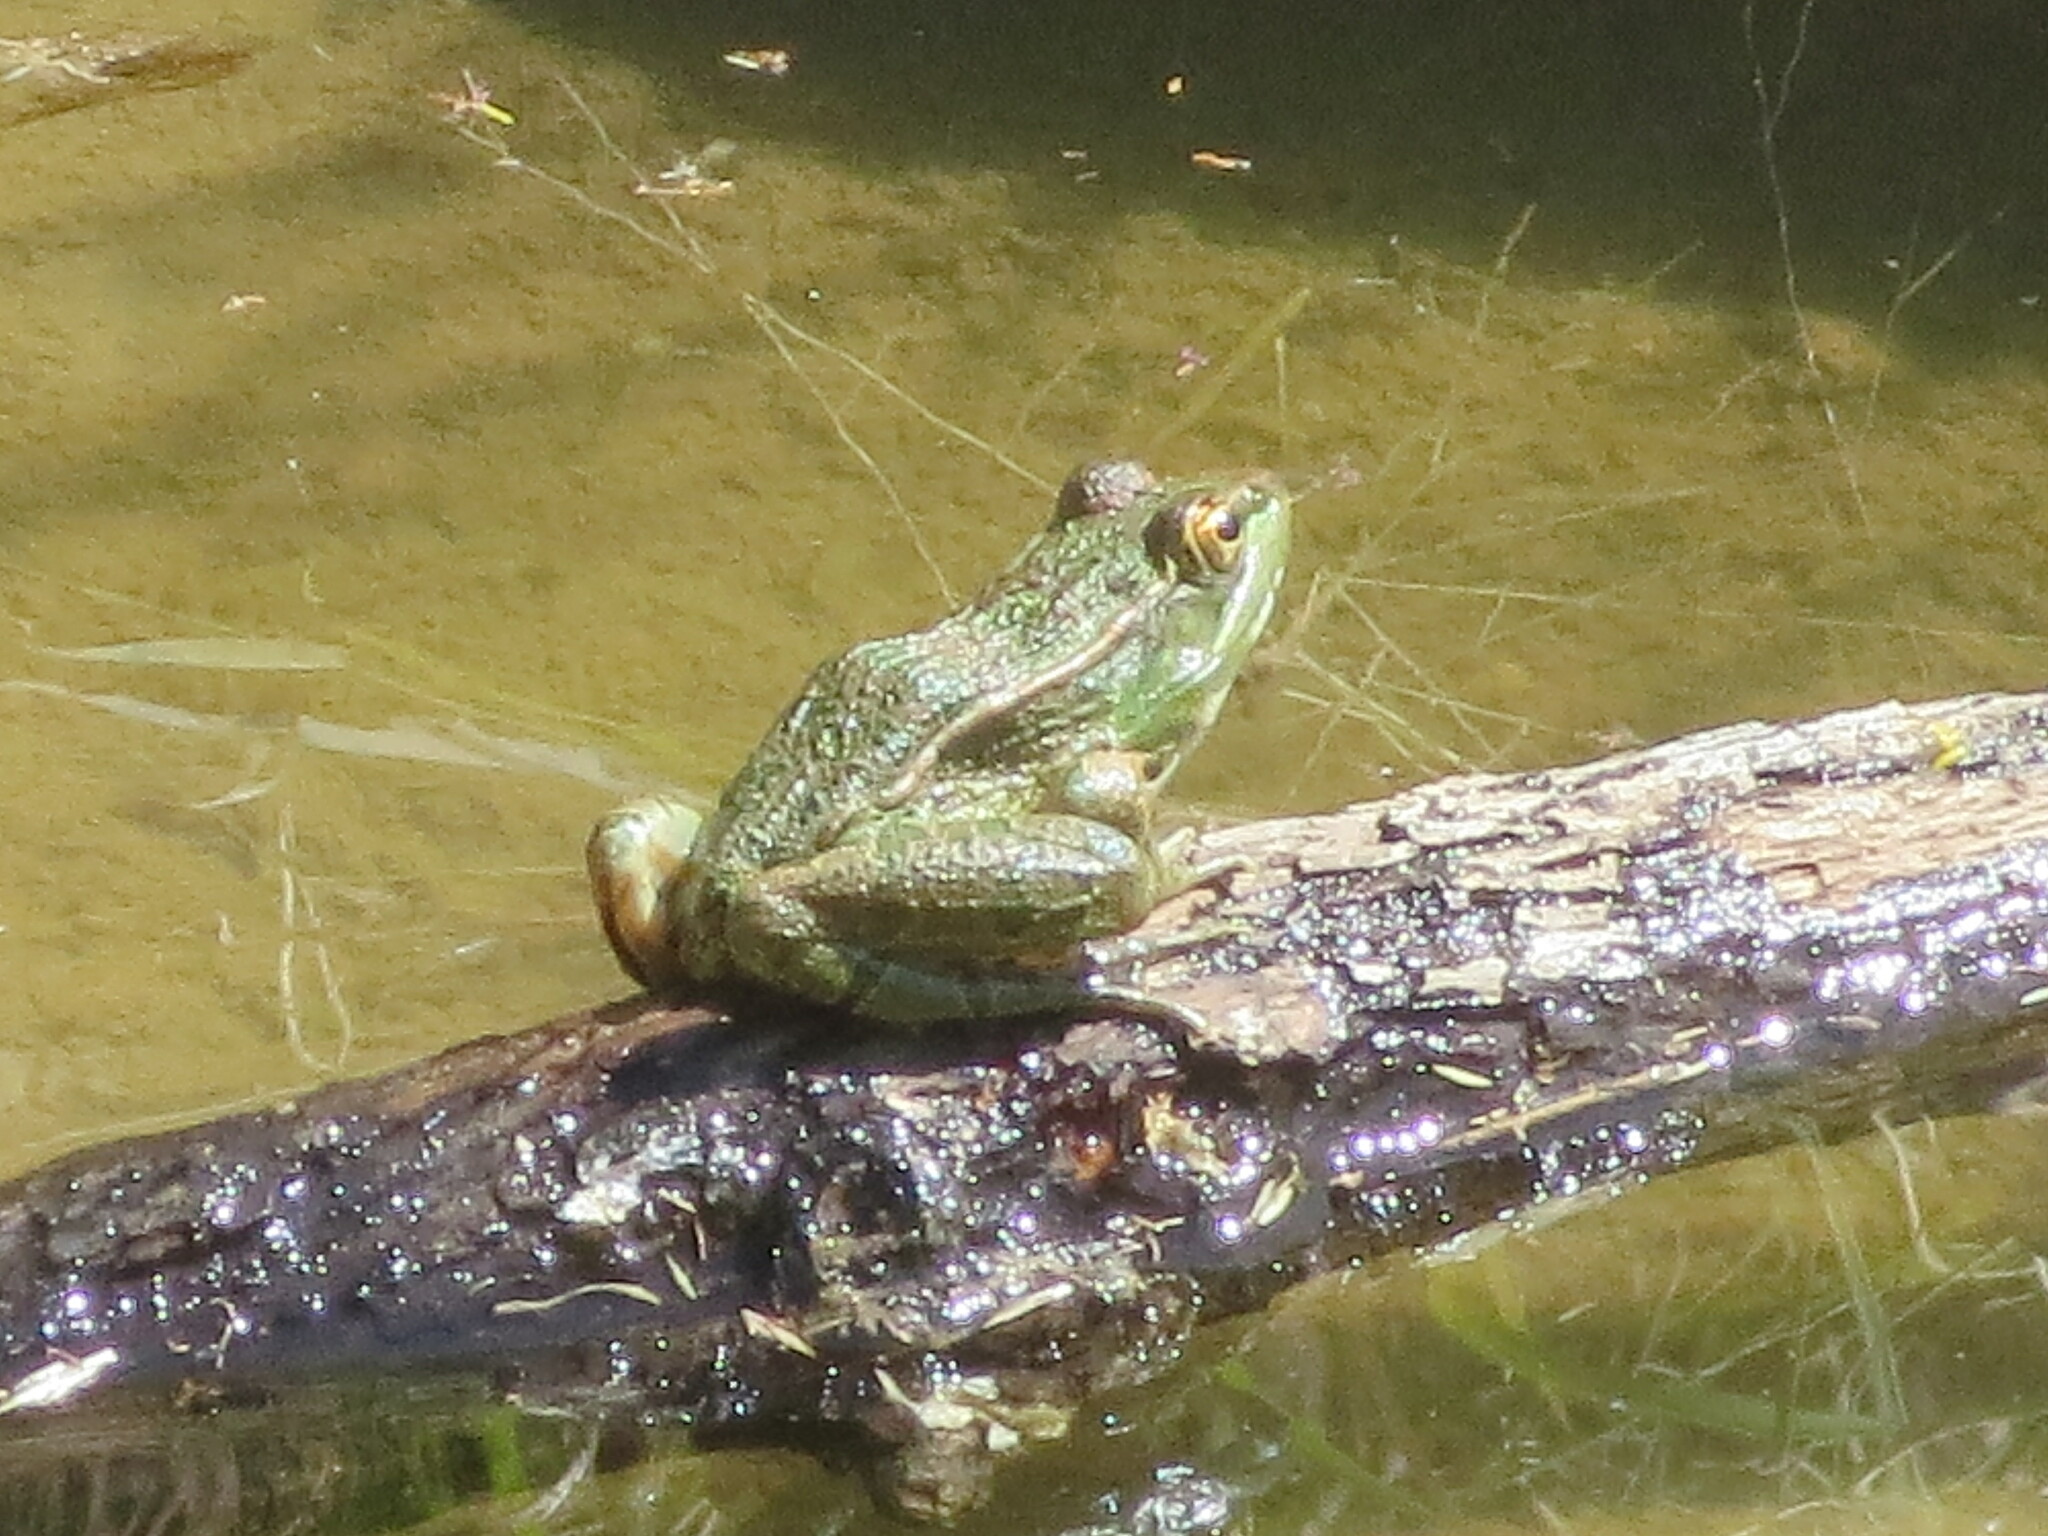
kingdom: Animalia
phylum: Chordata
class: Amphibia
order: Anura
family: Ranidae
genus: Lithobates
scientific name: Lithobates berlandieri
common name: Rio grande leopard frog
